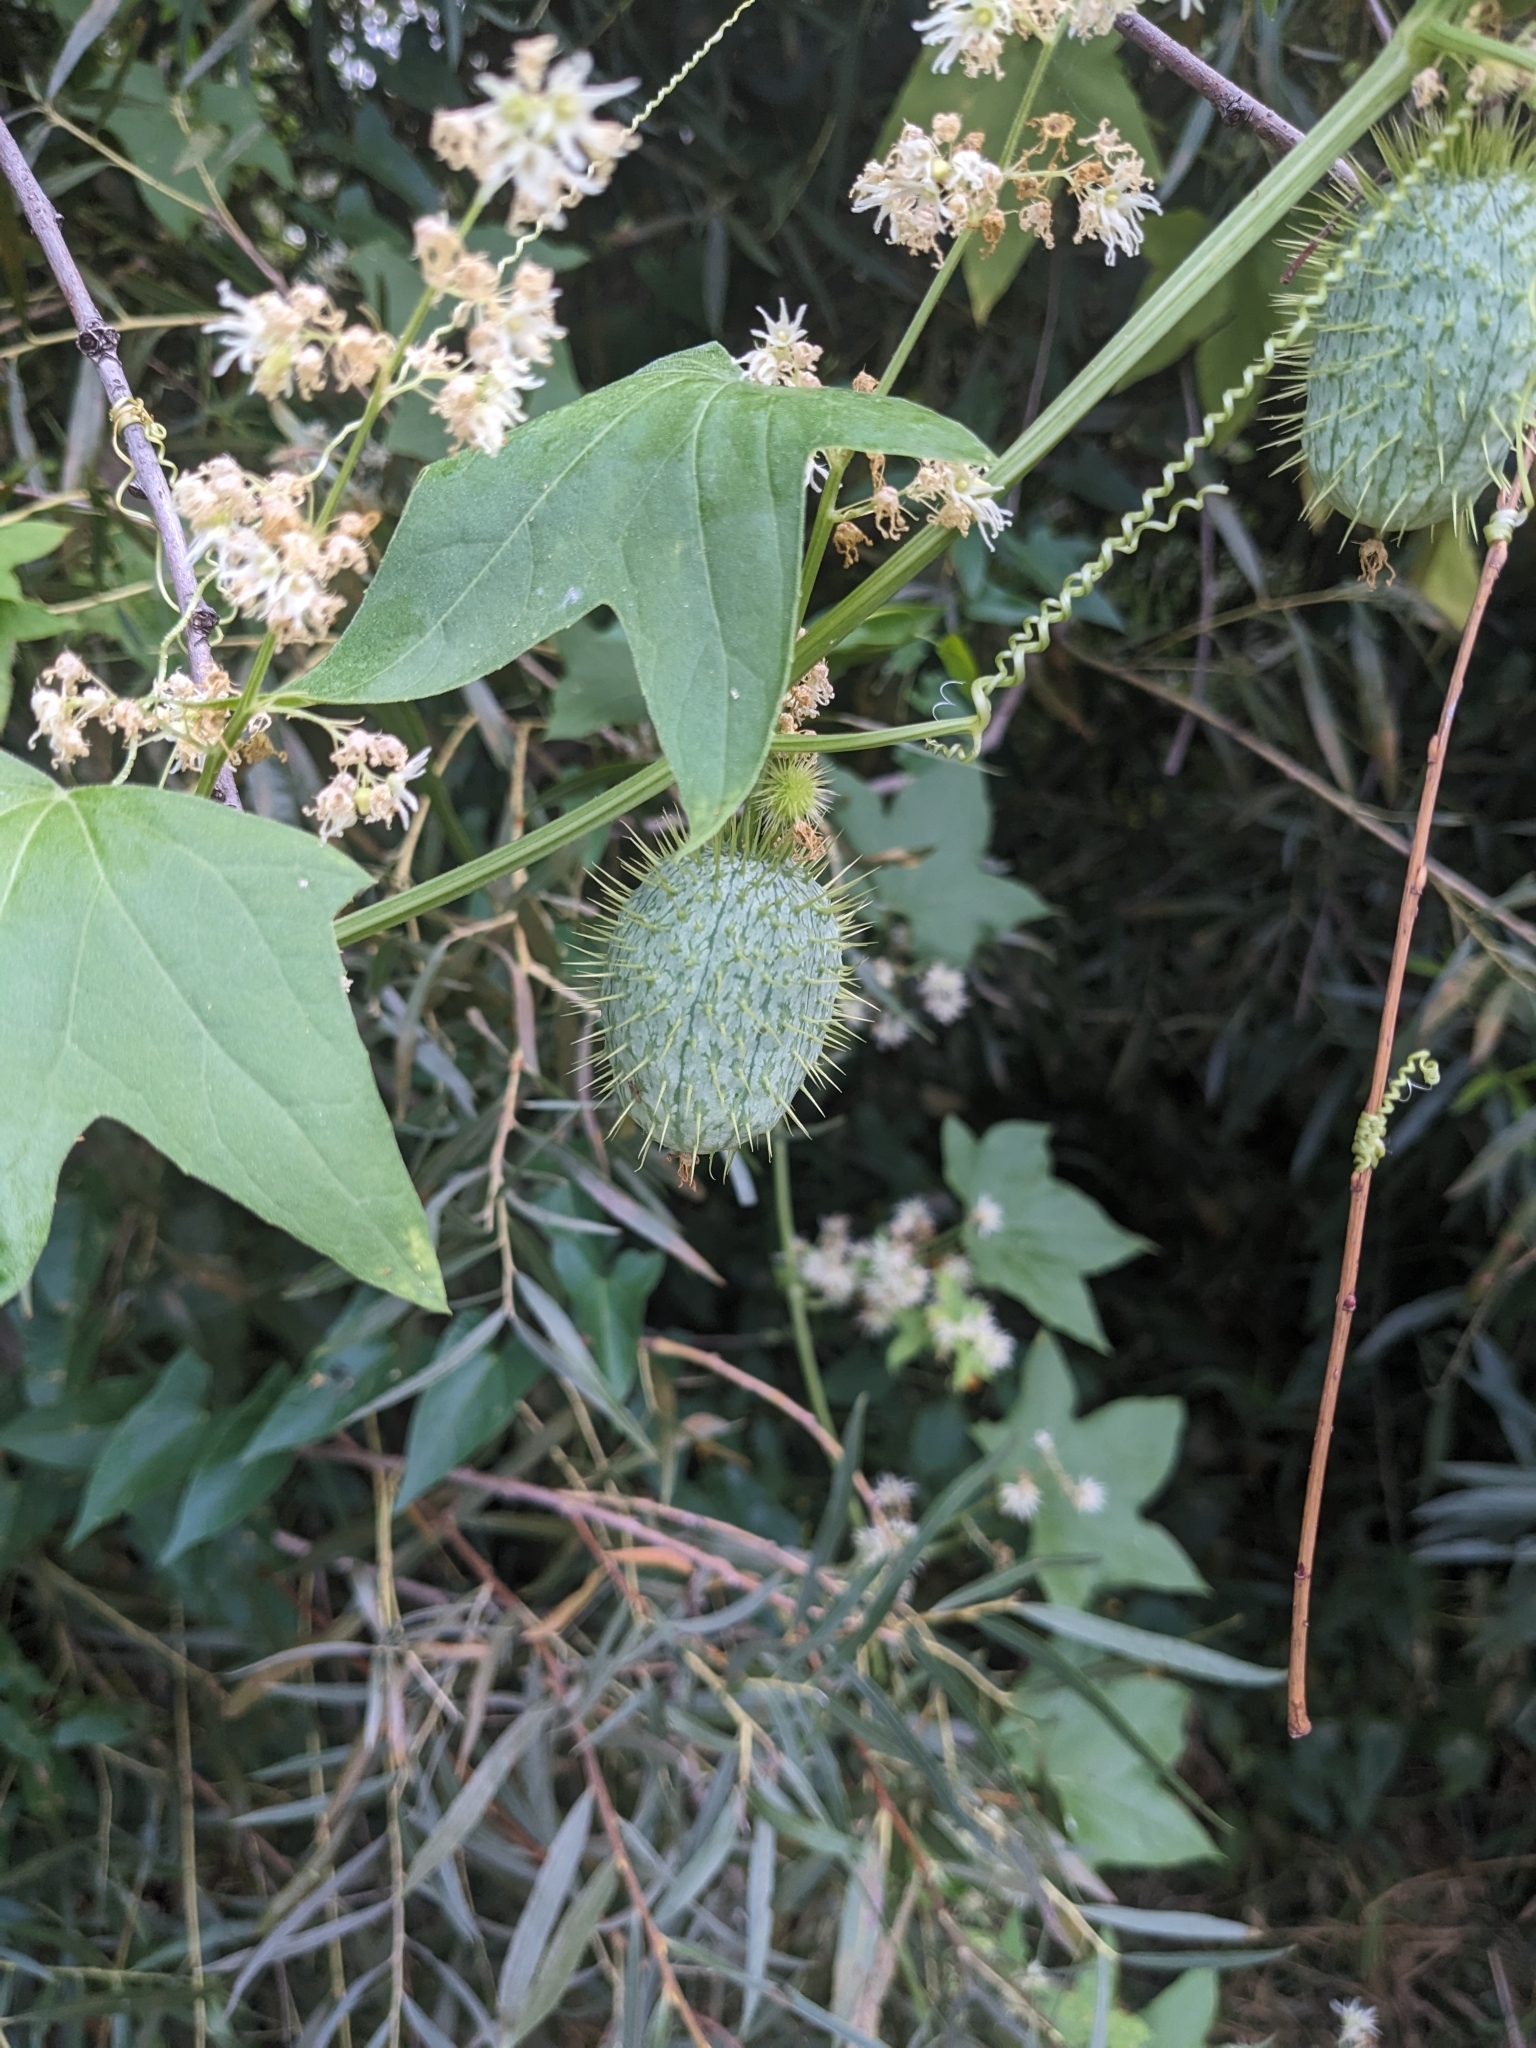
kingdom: Plantae
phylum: Tracheophyta
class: Magnoliopsida
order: Cucurbitales
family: Cucurbitaceae
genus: Echinocystis
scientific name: Echinocystis lobata
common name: Wild cucumber
